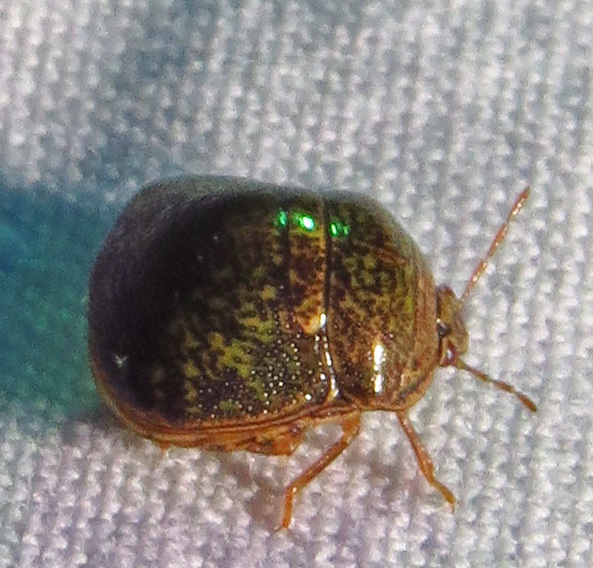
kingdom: Animalia
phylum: Arthropoda
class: Insecta
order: Hemiptera
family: Plataspidae
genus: Megacopta
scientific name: Megacopta cribraria
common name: Bean plataspid
